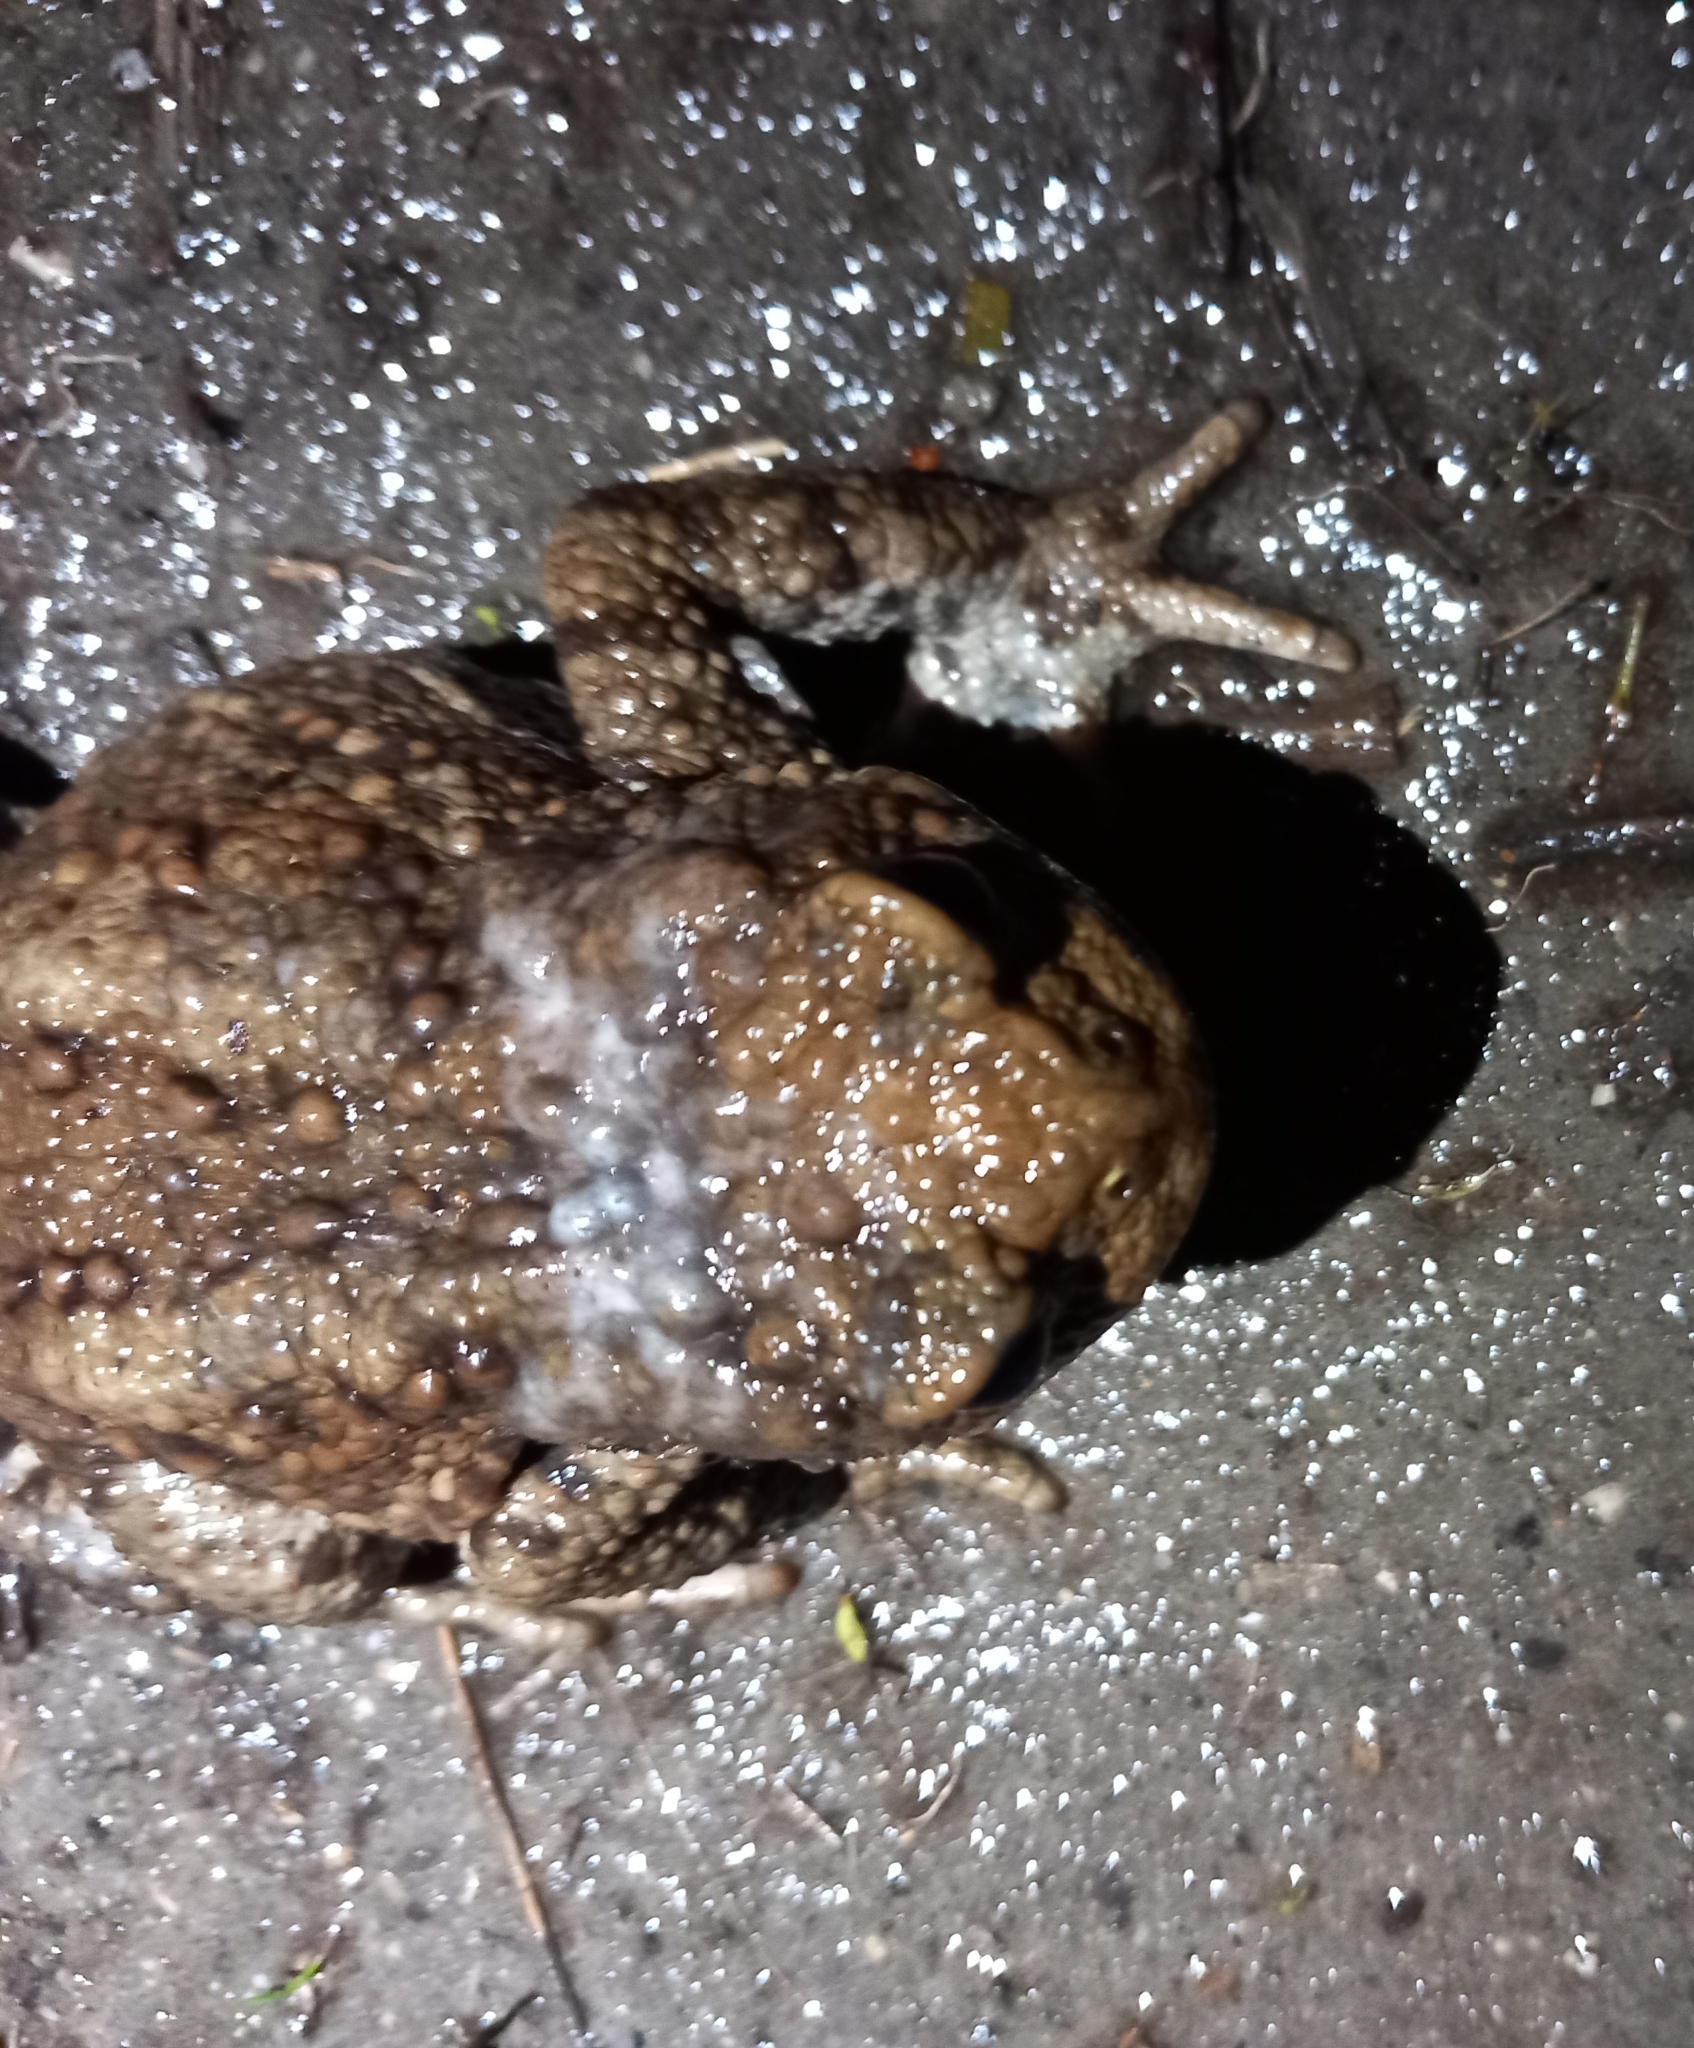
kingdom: Animalia
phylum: Chordata
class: Amphibia
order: Anura
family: Bufonidae
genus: Bufo
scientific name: Bufo bufo
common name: Common toad
